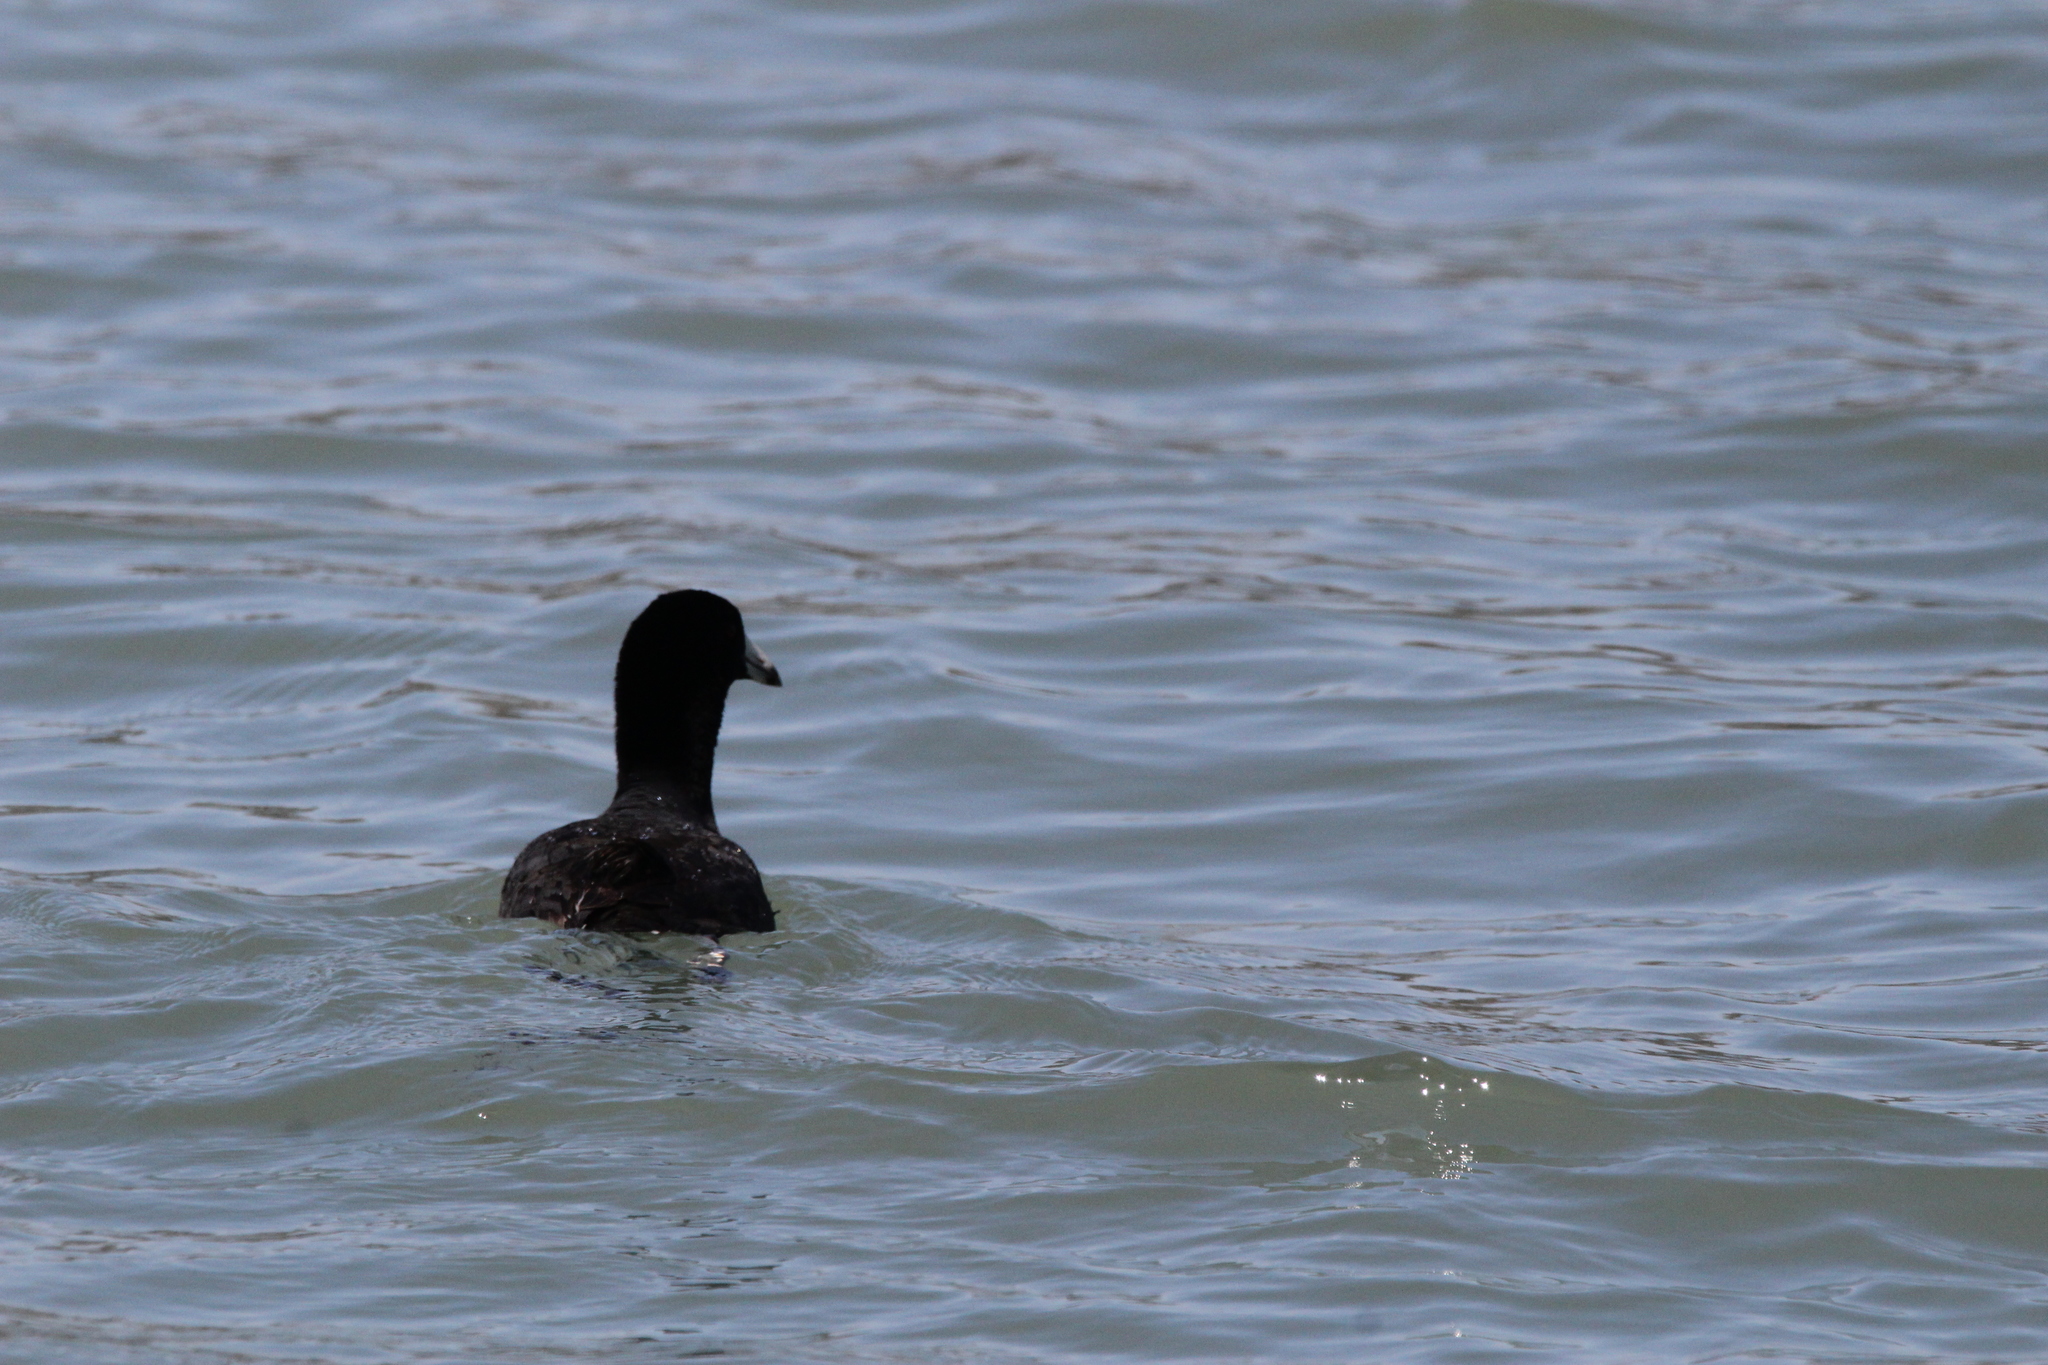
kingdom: Animalia
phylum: Chordata
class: Aves
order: Gruiformes
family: Rallidae
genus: Fulica
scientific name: Fulica americana
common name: American coot
